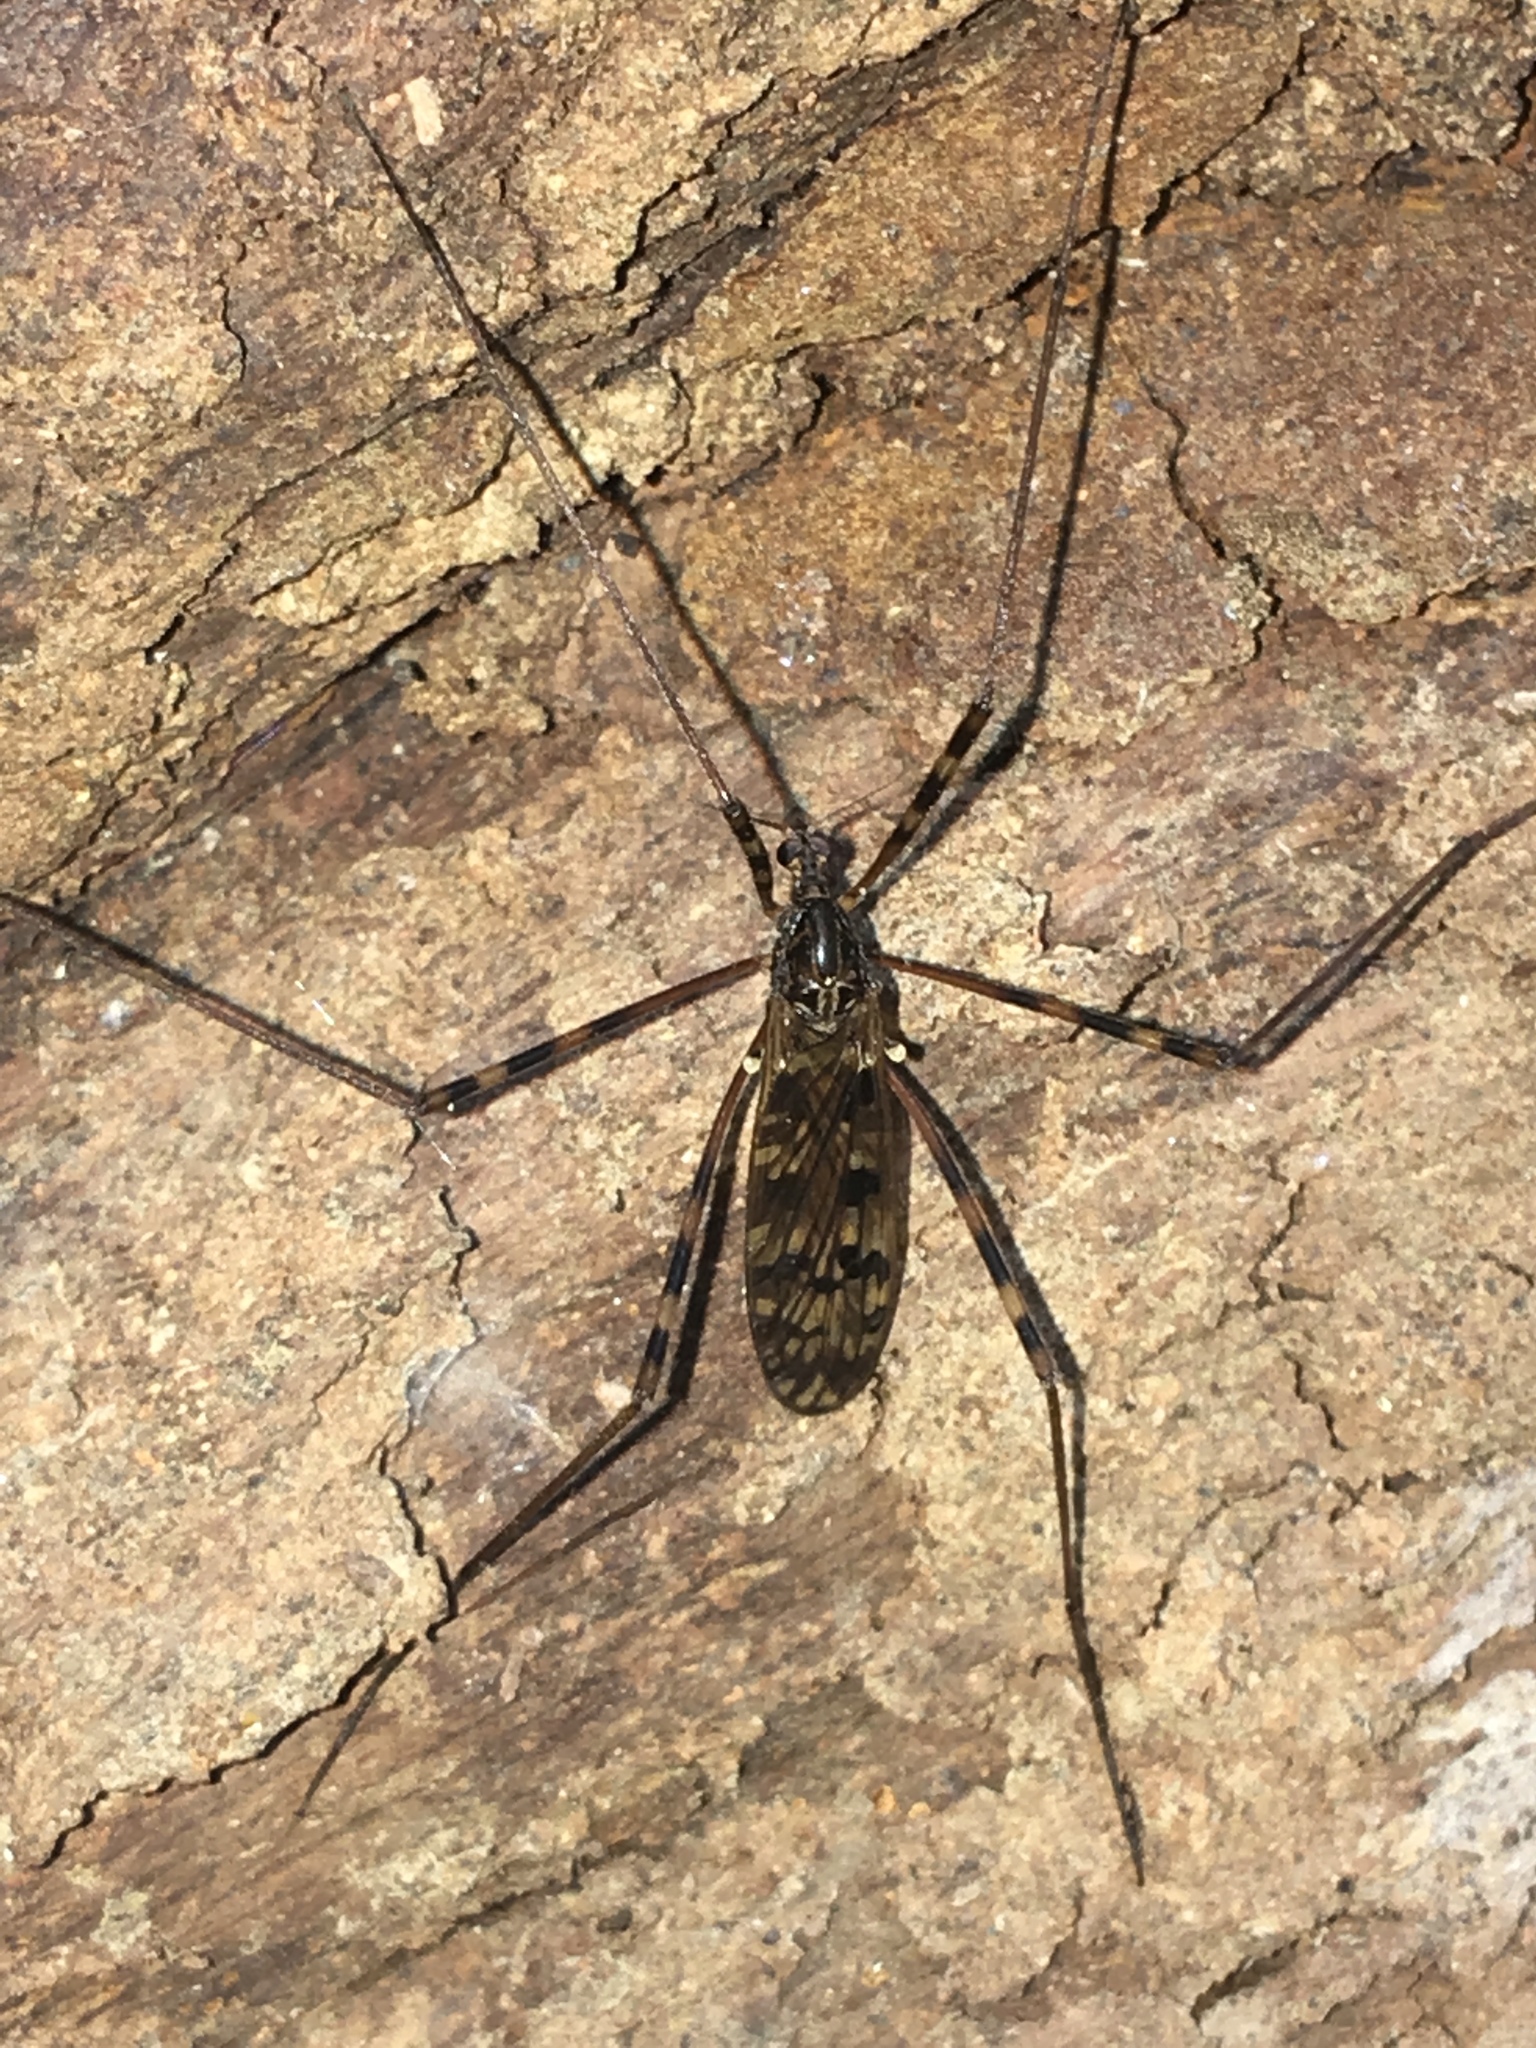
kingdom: Animalia
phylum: Arthropoda
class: Insecta
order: Diptera
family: Limoniidae
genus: Metalimnobia
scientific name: Metalimnobia immatura
